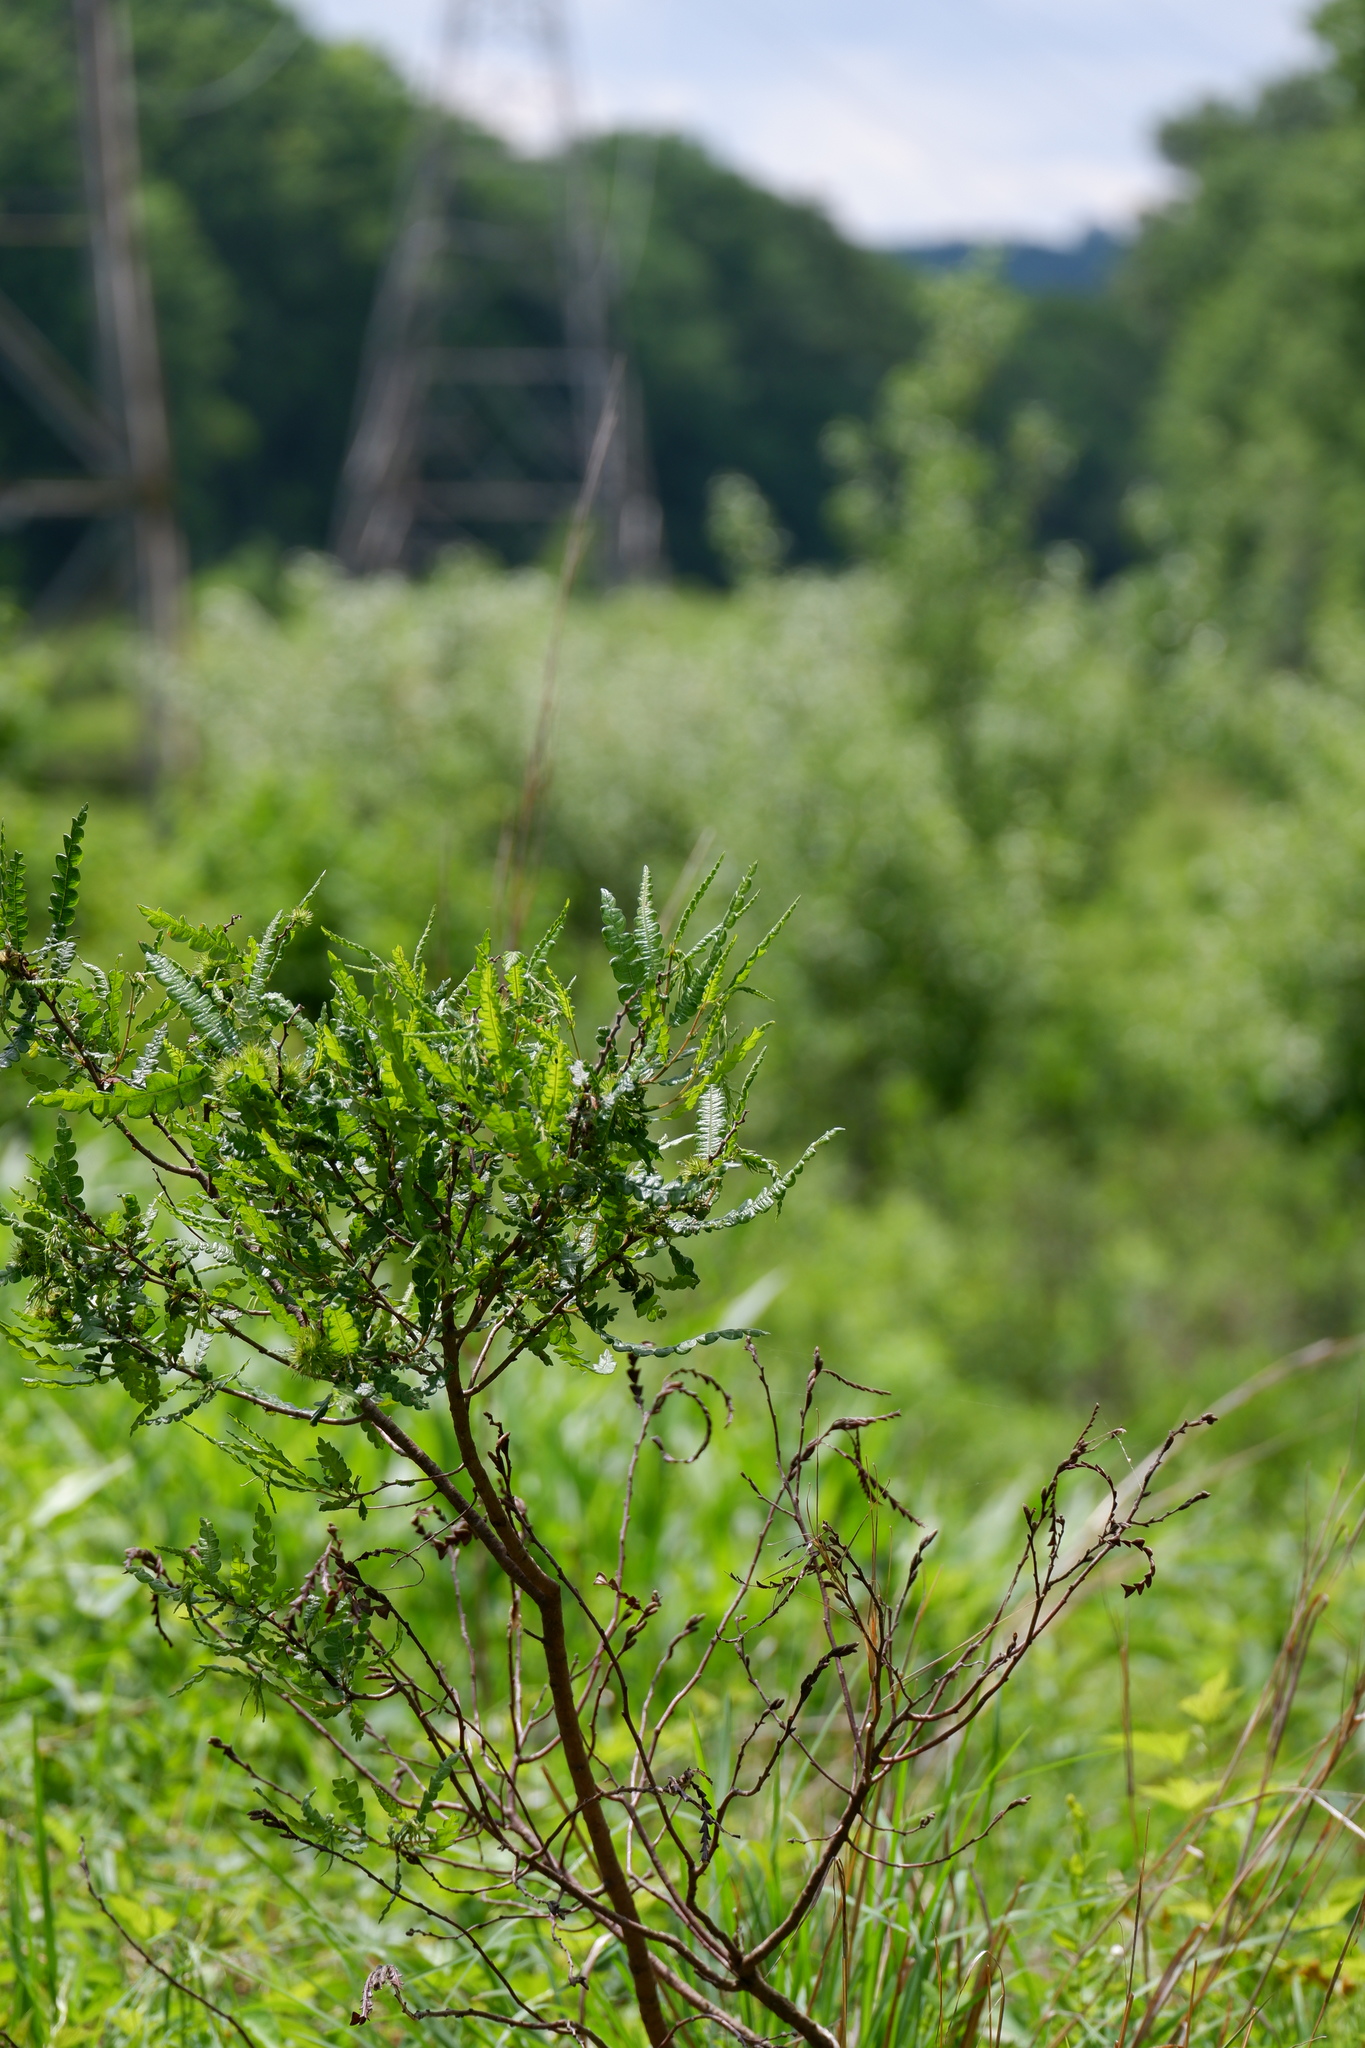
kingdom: Plantae
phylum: Tracheophyta
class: Magnoliopsida
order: Fagales
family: Myricaceae
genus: Comptonia
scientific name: Comptonia peregrina
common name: Sweet-fern
